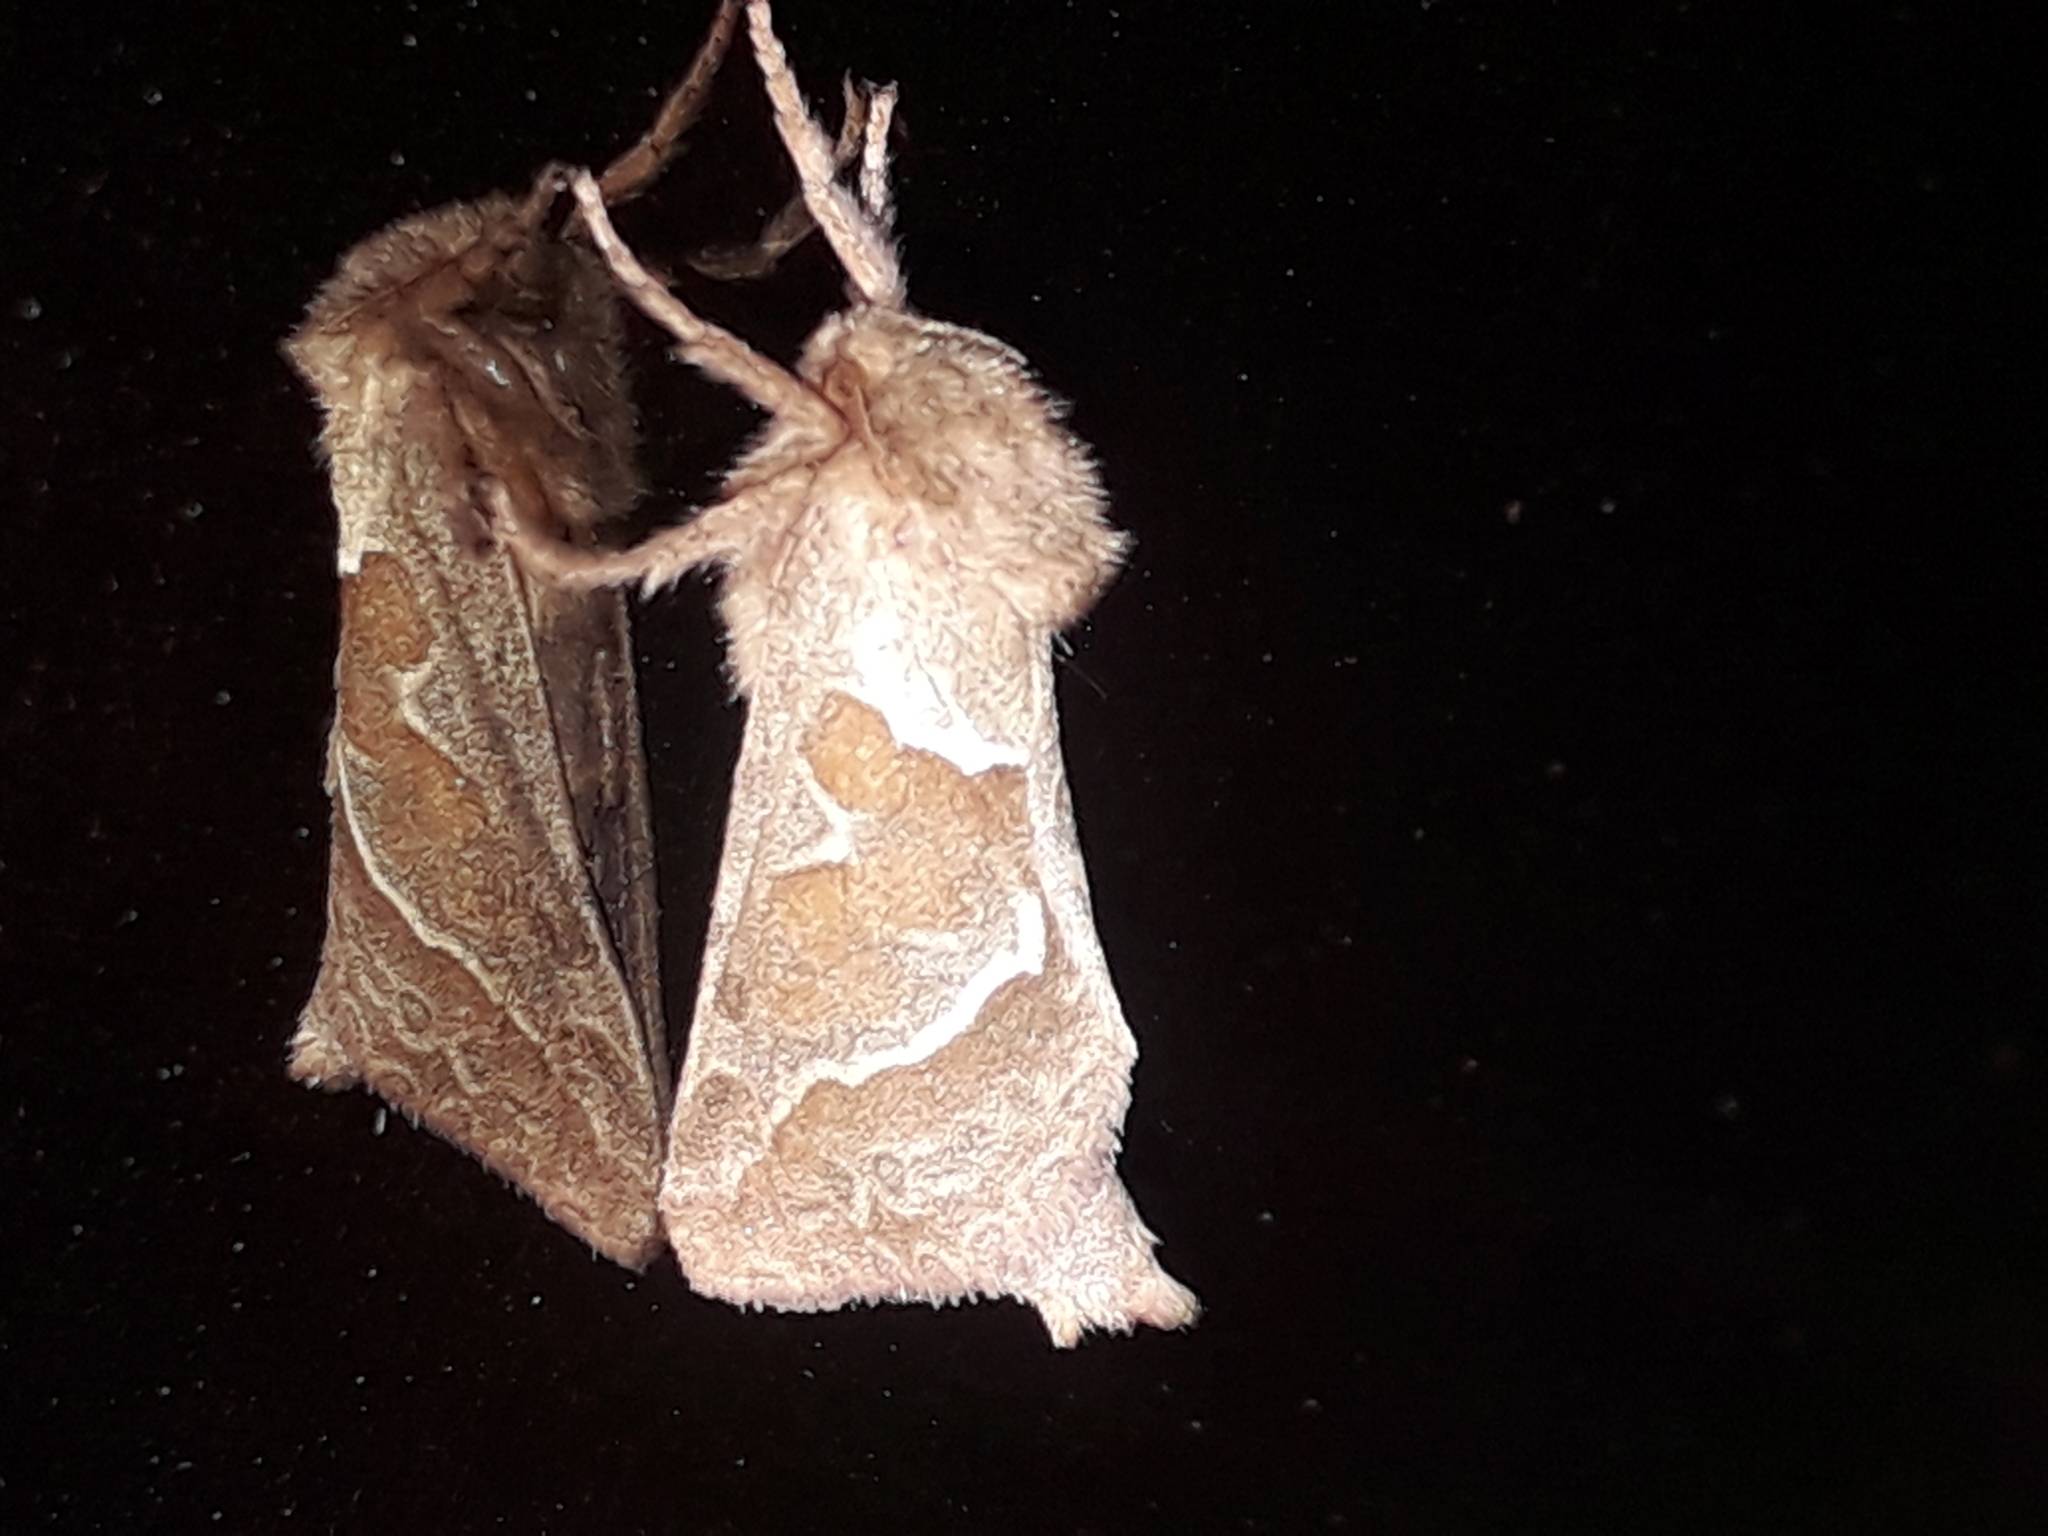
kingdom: Animalia
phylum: Arthropoda
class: Insecta
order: Lepidoptera
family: Hepialidae
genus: Triodia
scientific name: Triodia sylvina
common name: Orange swift
